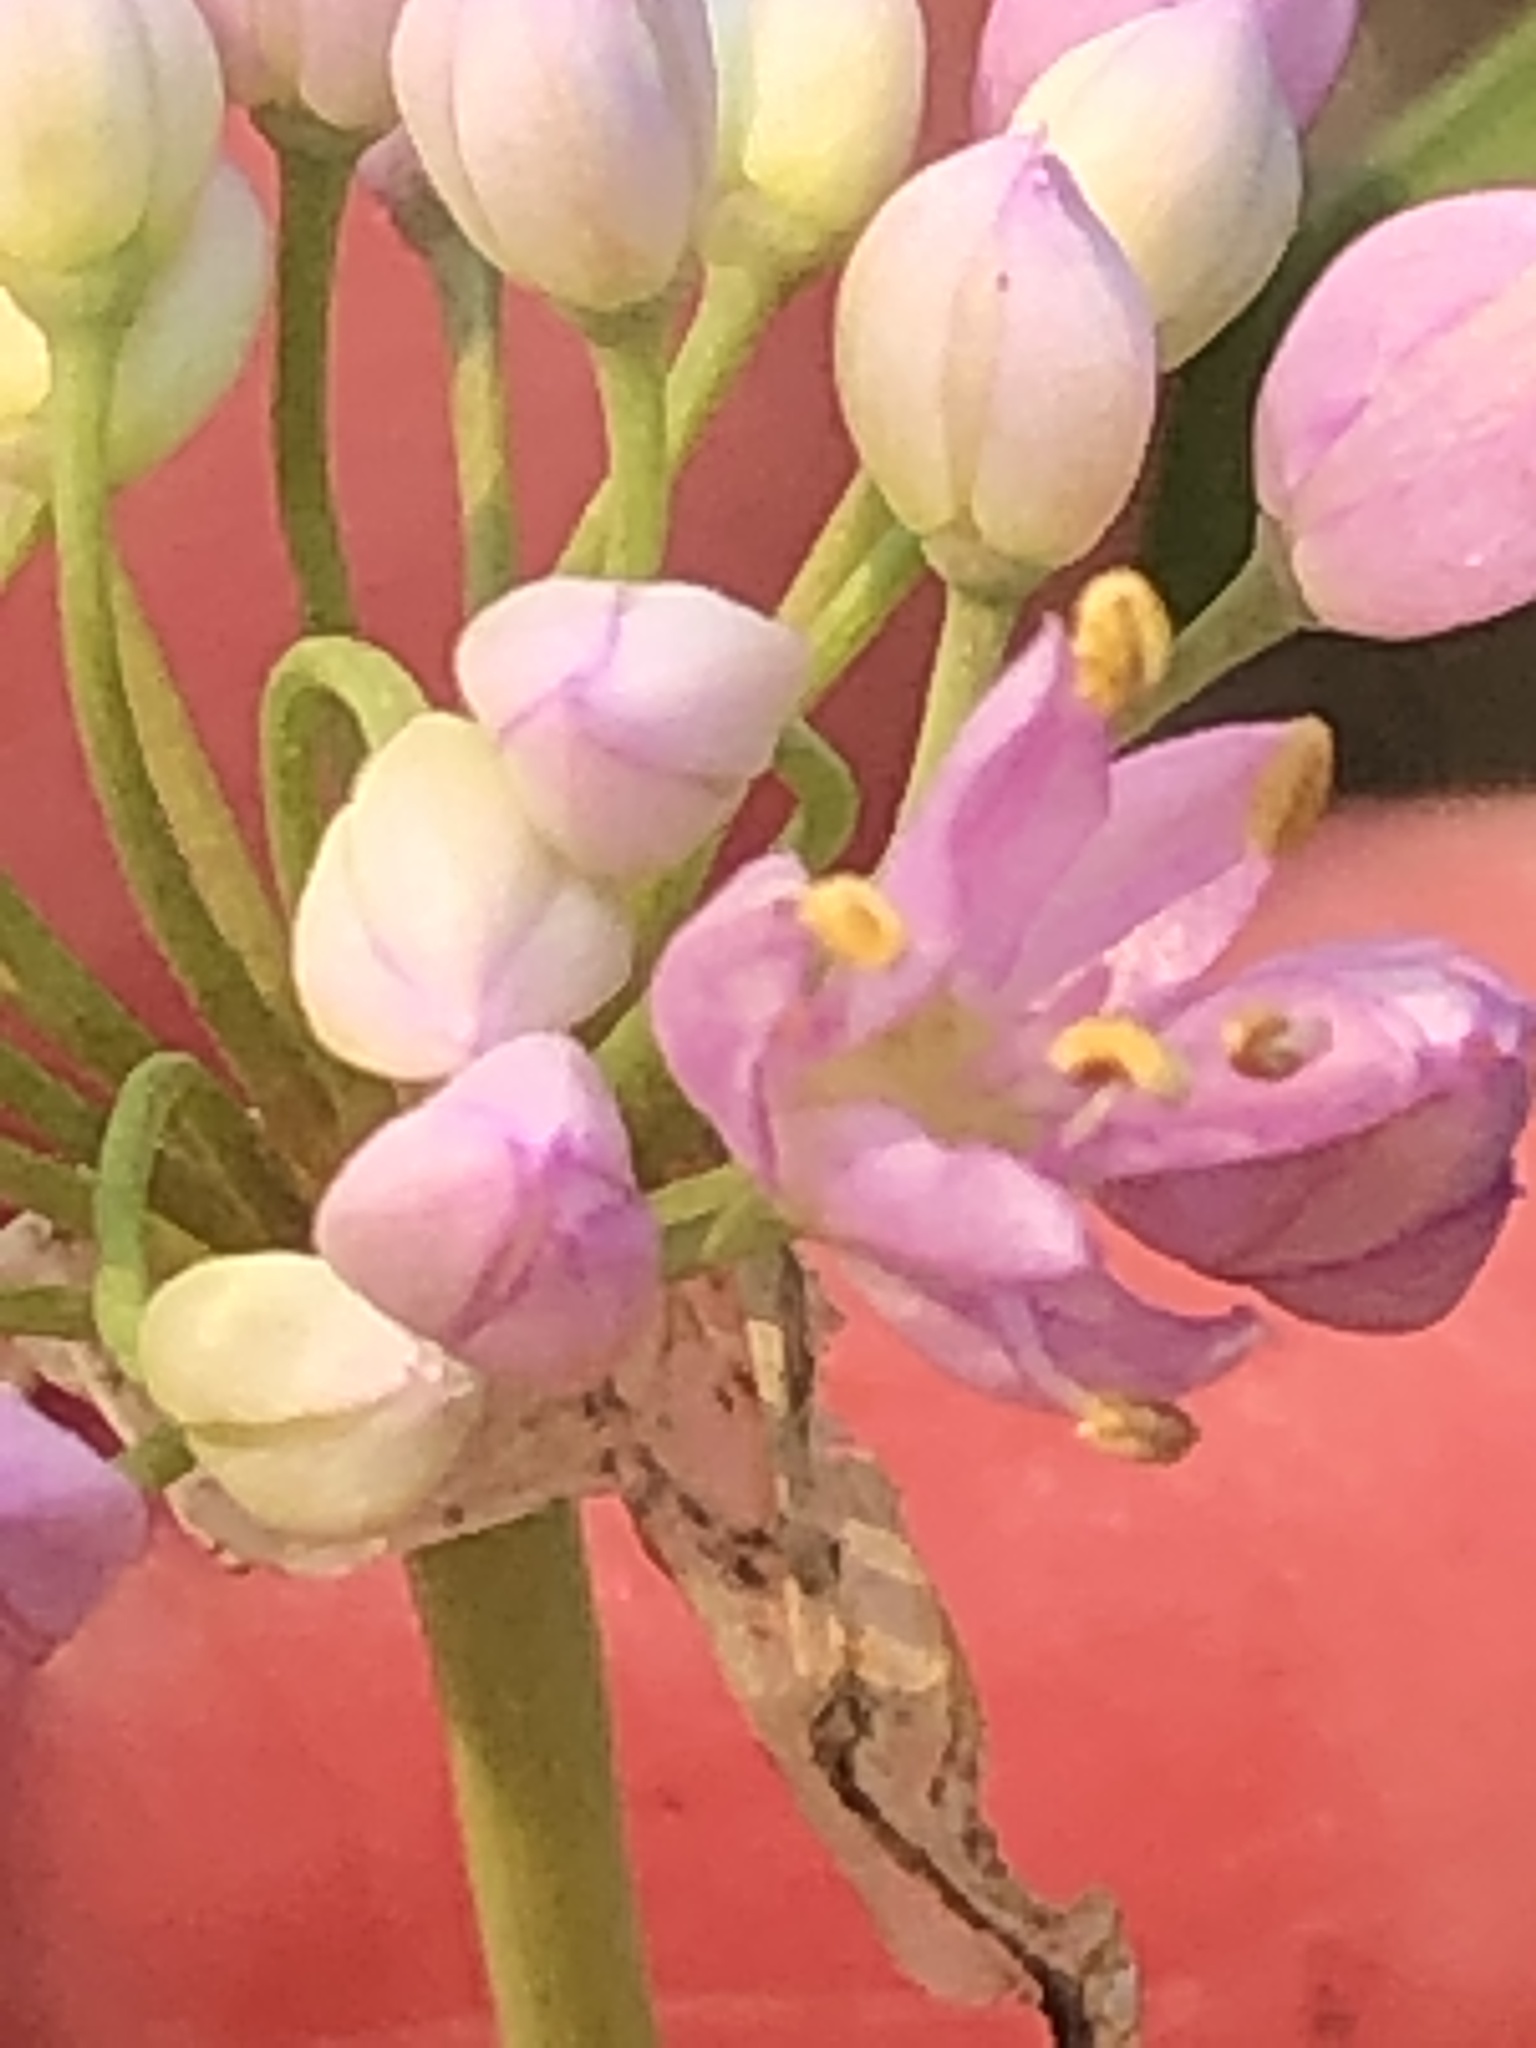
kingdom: Plantae
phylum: Tracheophyta
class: Liliopsida
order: Asparagales
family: Amaryllidaceae
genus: Allium
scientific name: Allium stellatum
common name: Autumn onion
